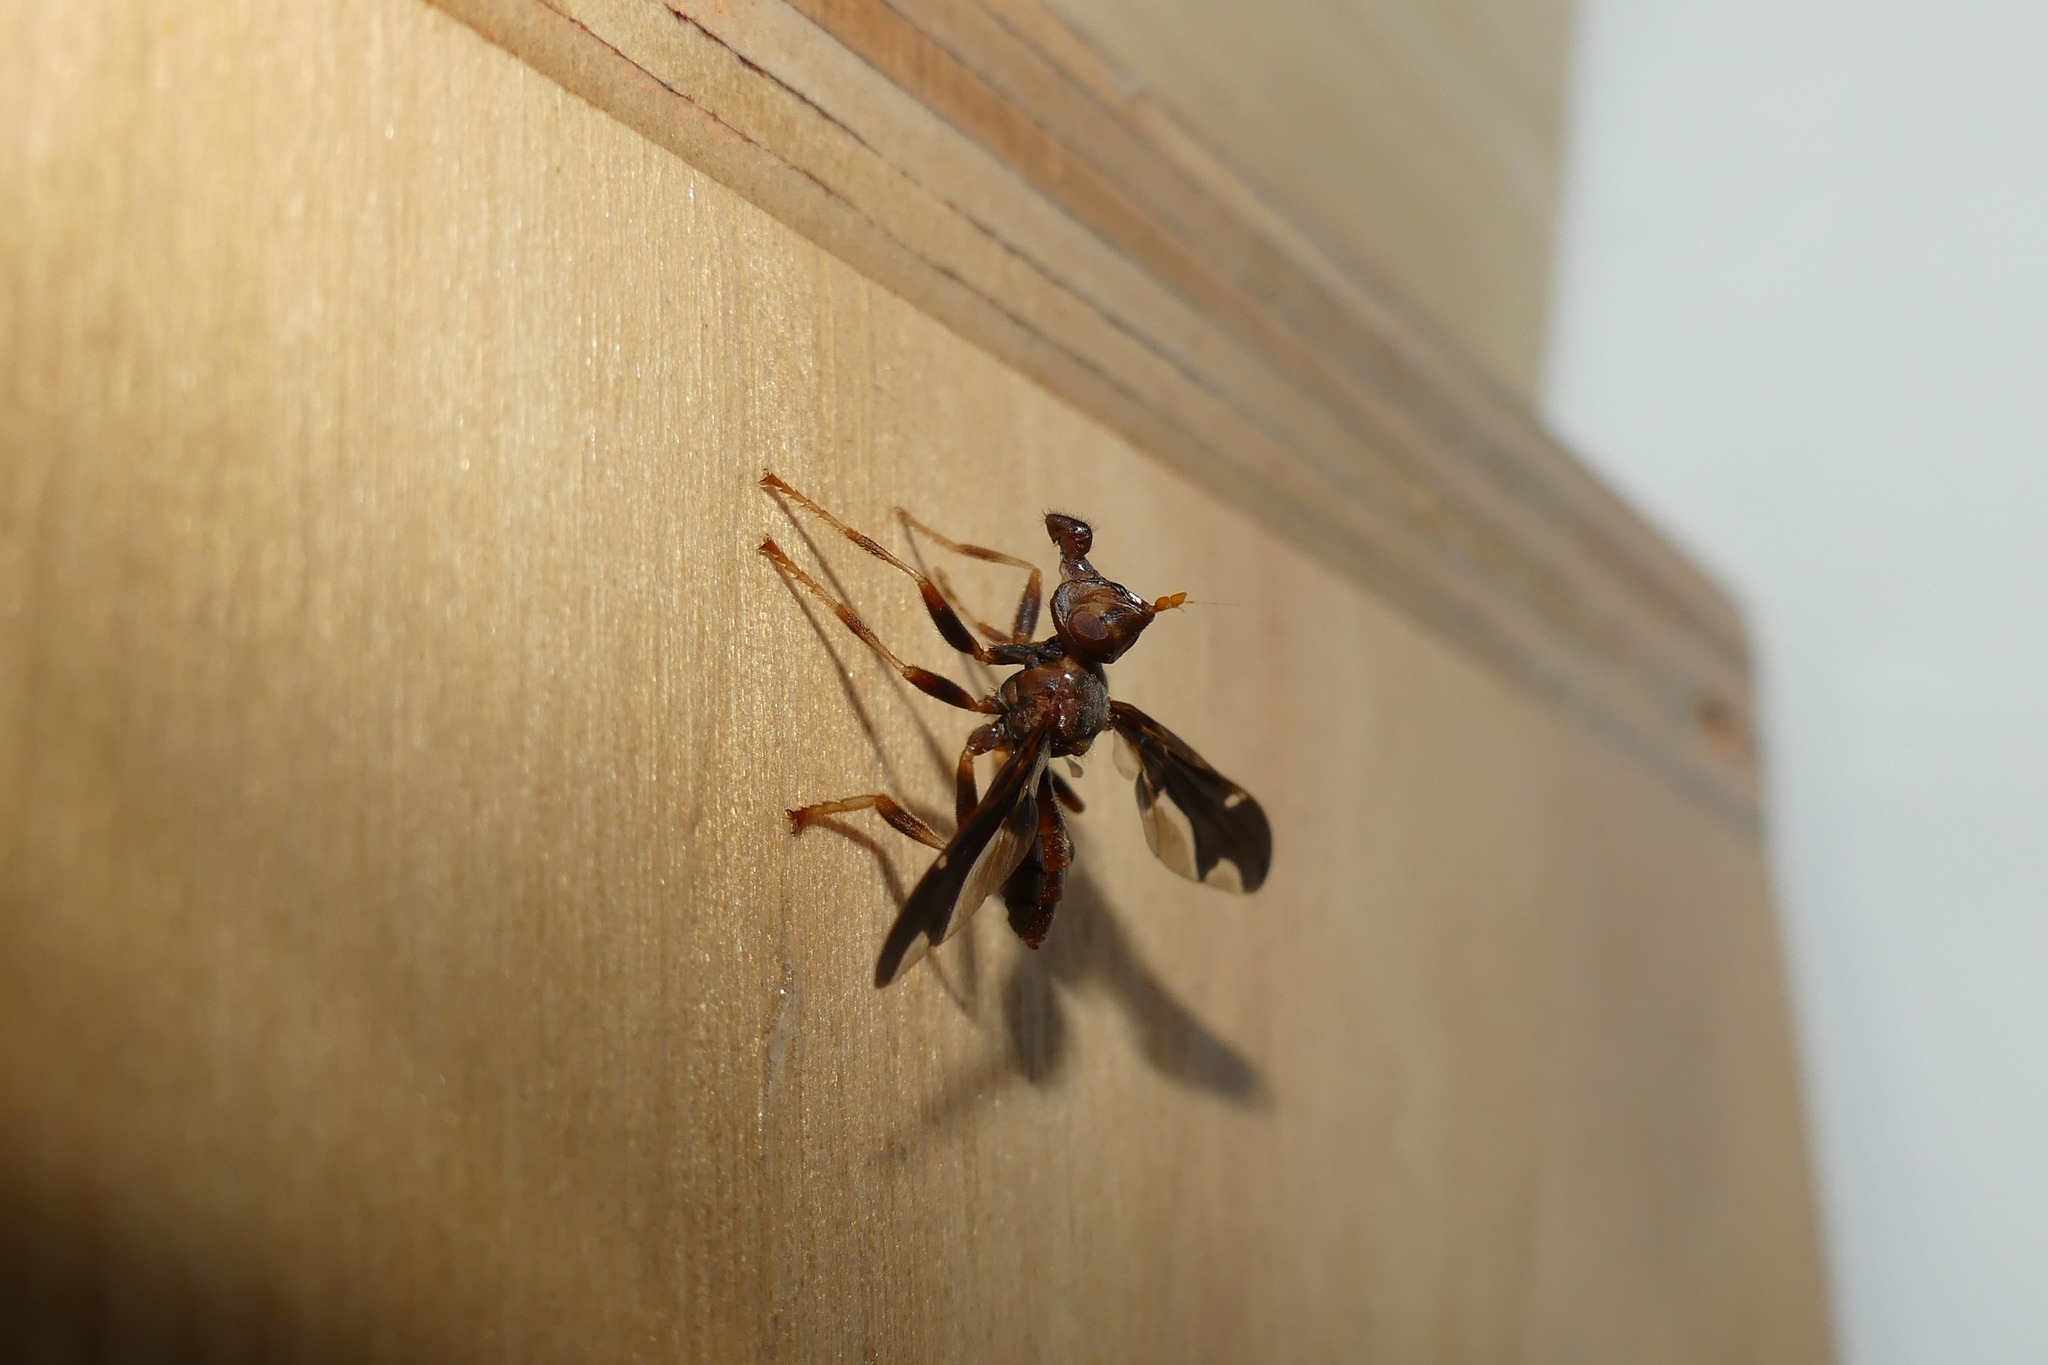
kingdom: Animalia
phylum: Arthropoda
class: Insecta
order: Diptera
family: Pyrgotidae
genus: Pyrgota
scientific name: Pyrgota undata
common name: Waved light fly
